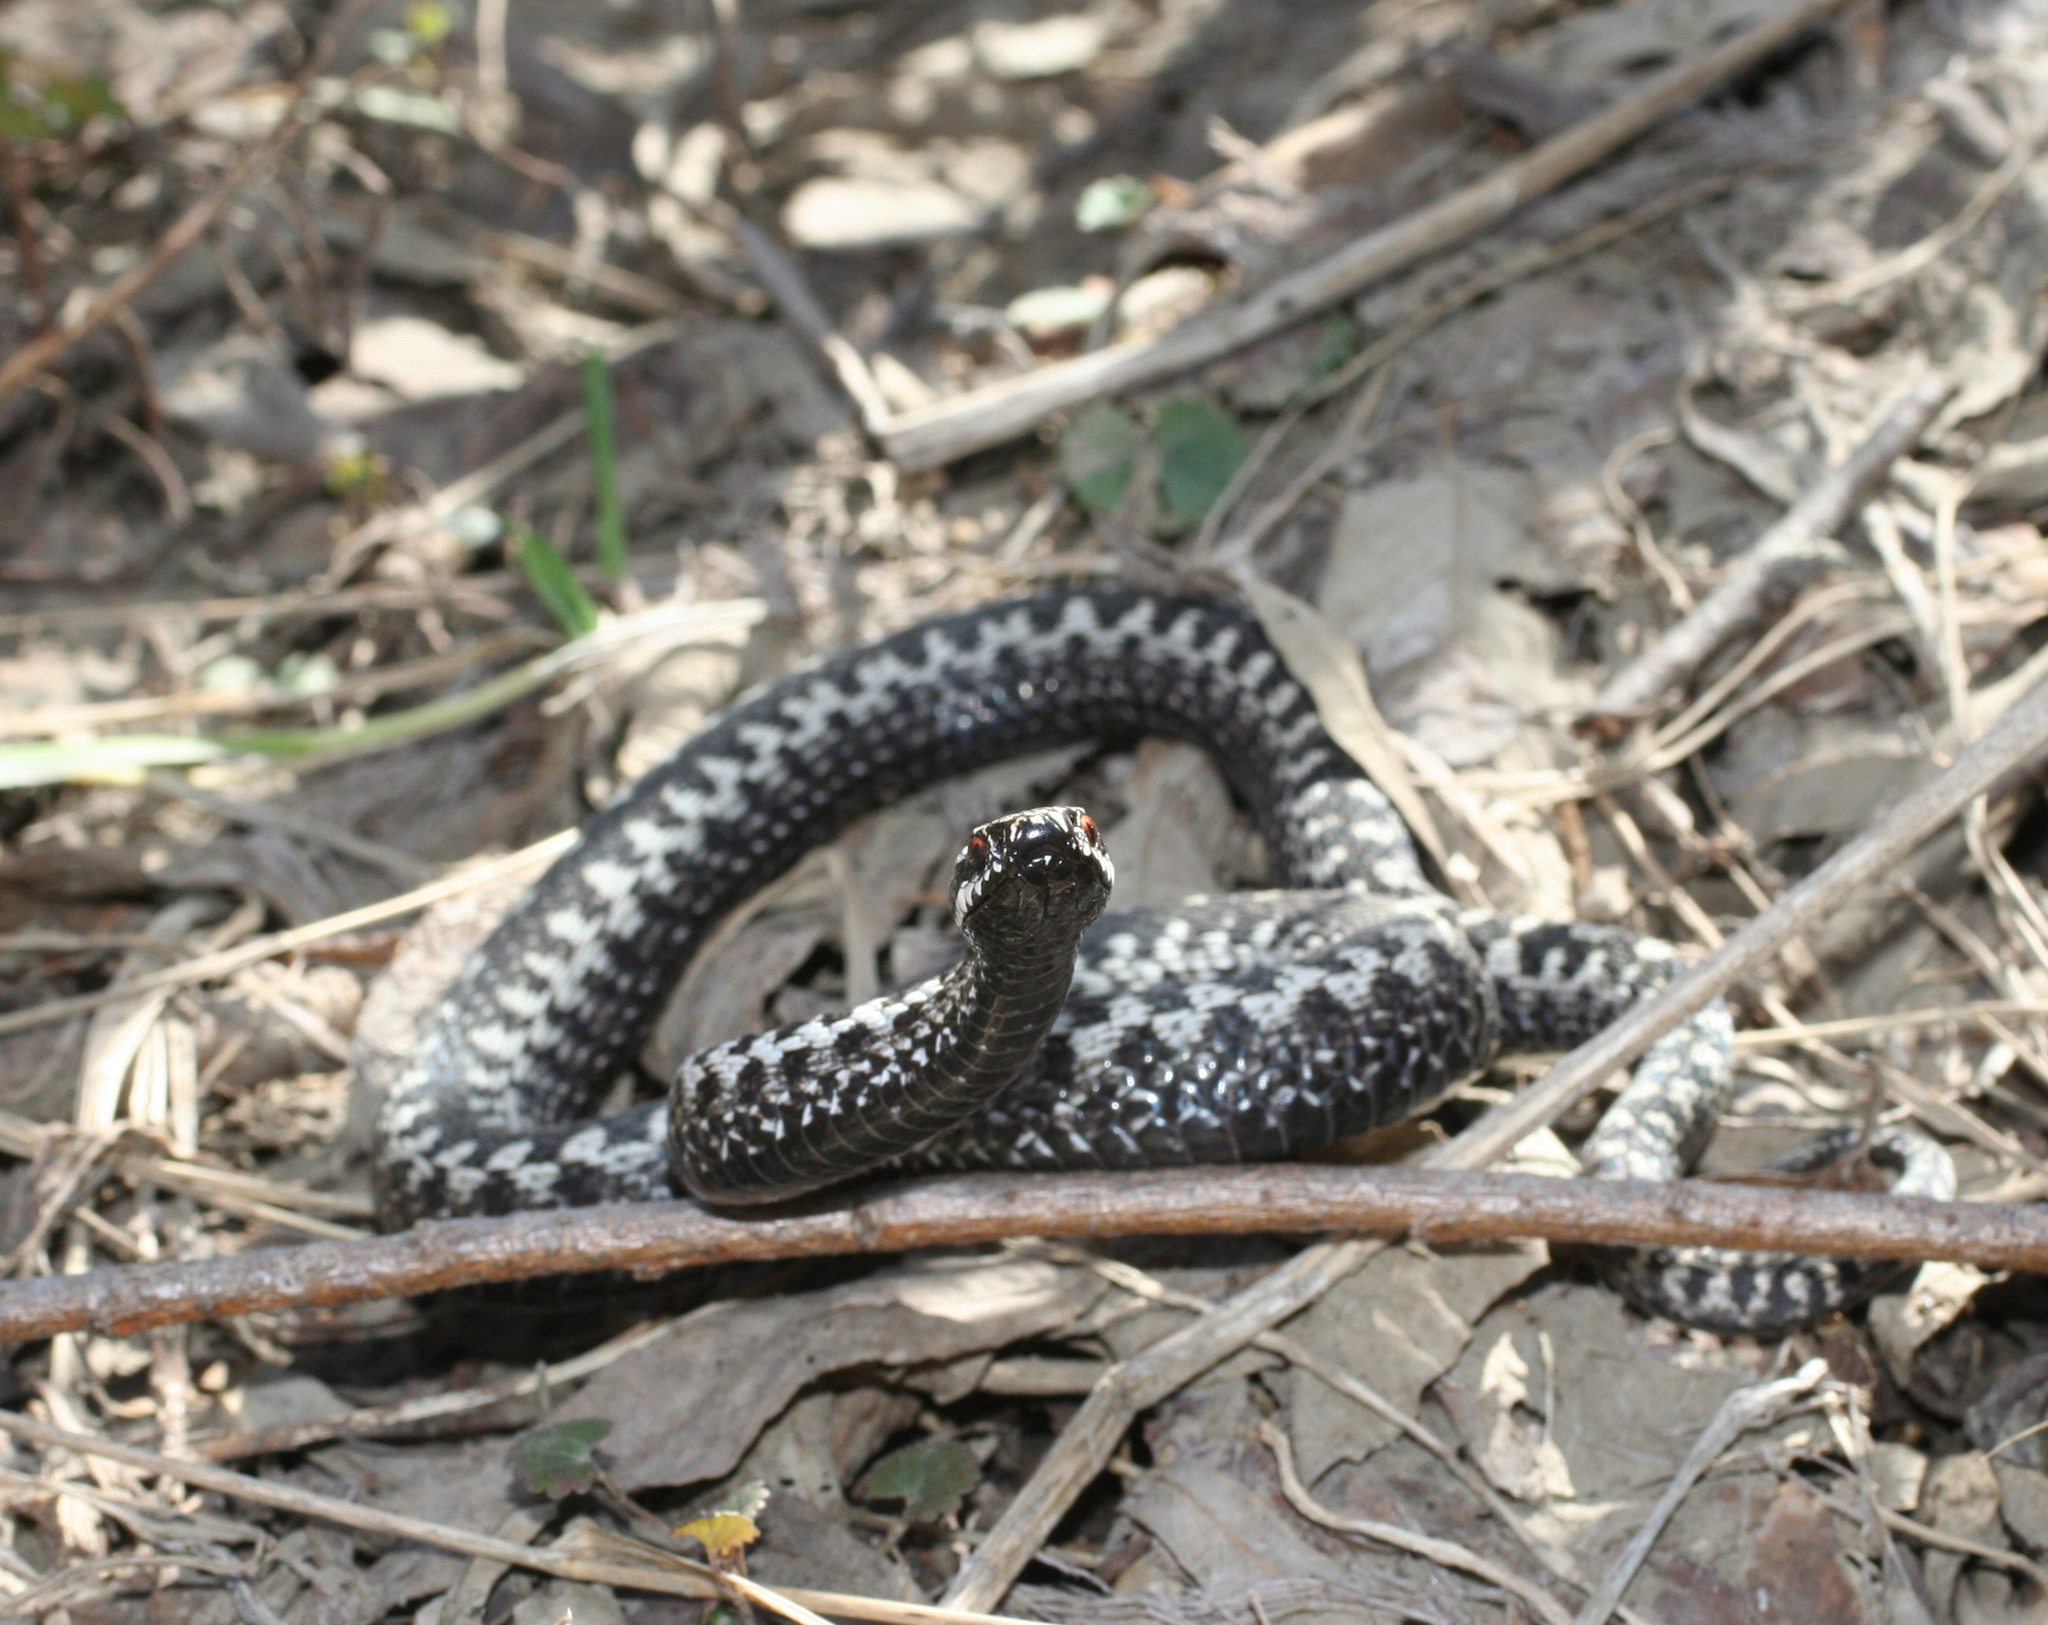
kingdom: Animalia
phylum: Chordata
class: Squamata
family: Viperidae
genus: Vipera
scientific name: Vipera berus
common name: Adder
